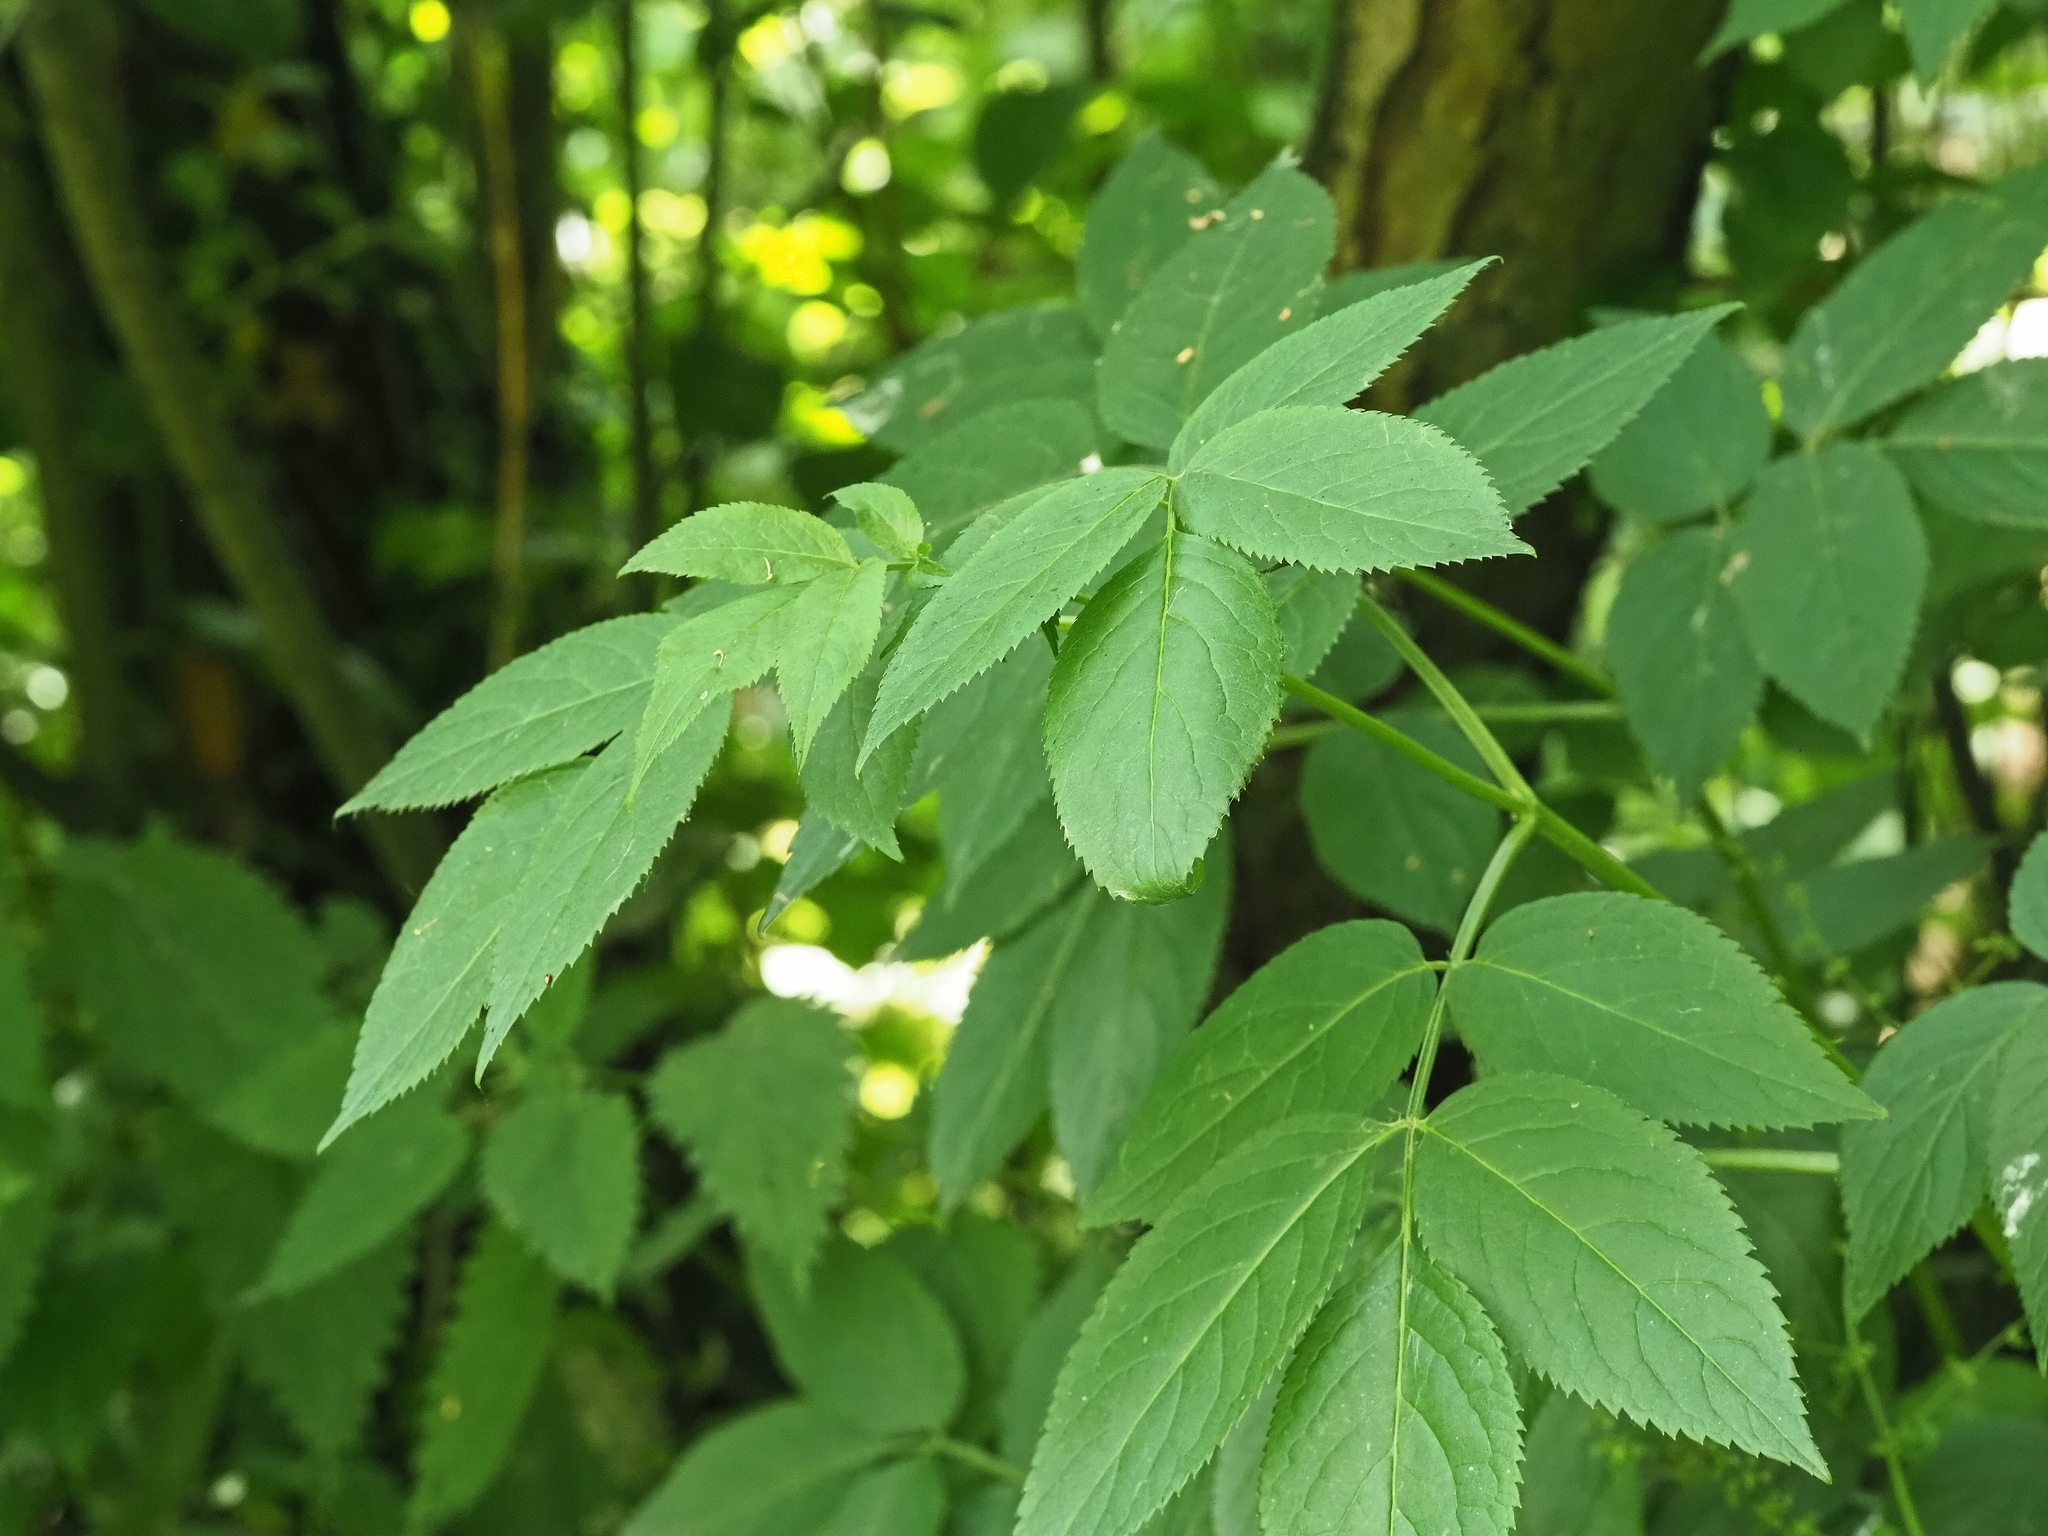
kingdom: Plantae
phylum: Tracheophyta
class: Magnoliopsida
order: Dipsacales
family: Viburnaceae
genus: Sambucus
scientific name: Sambucus nigra
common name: Elder
